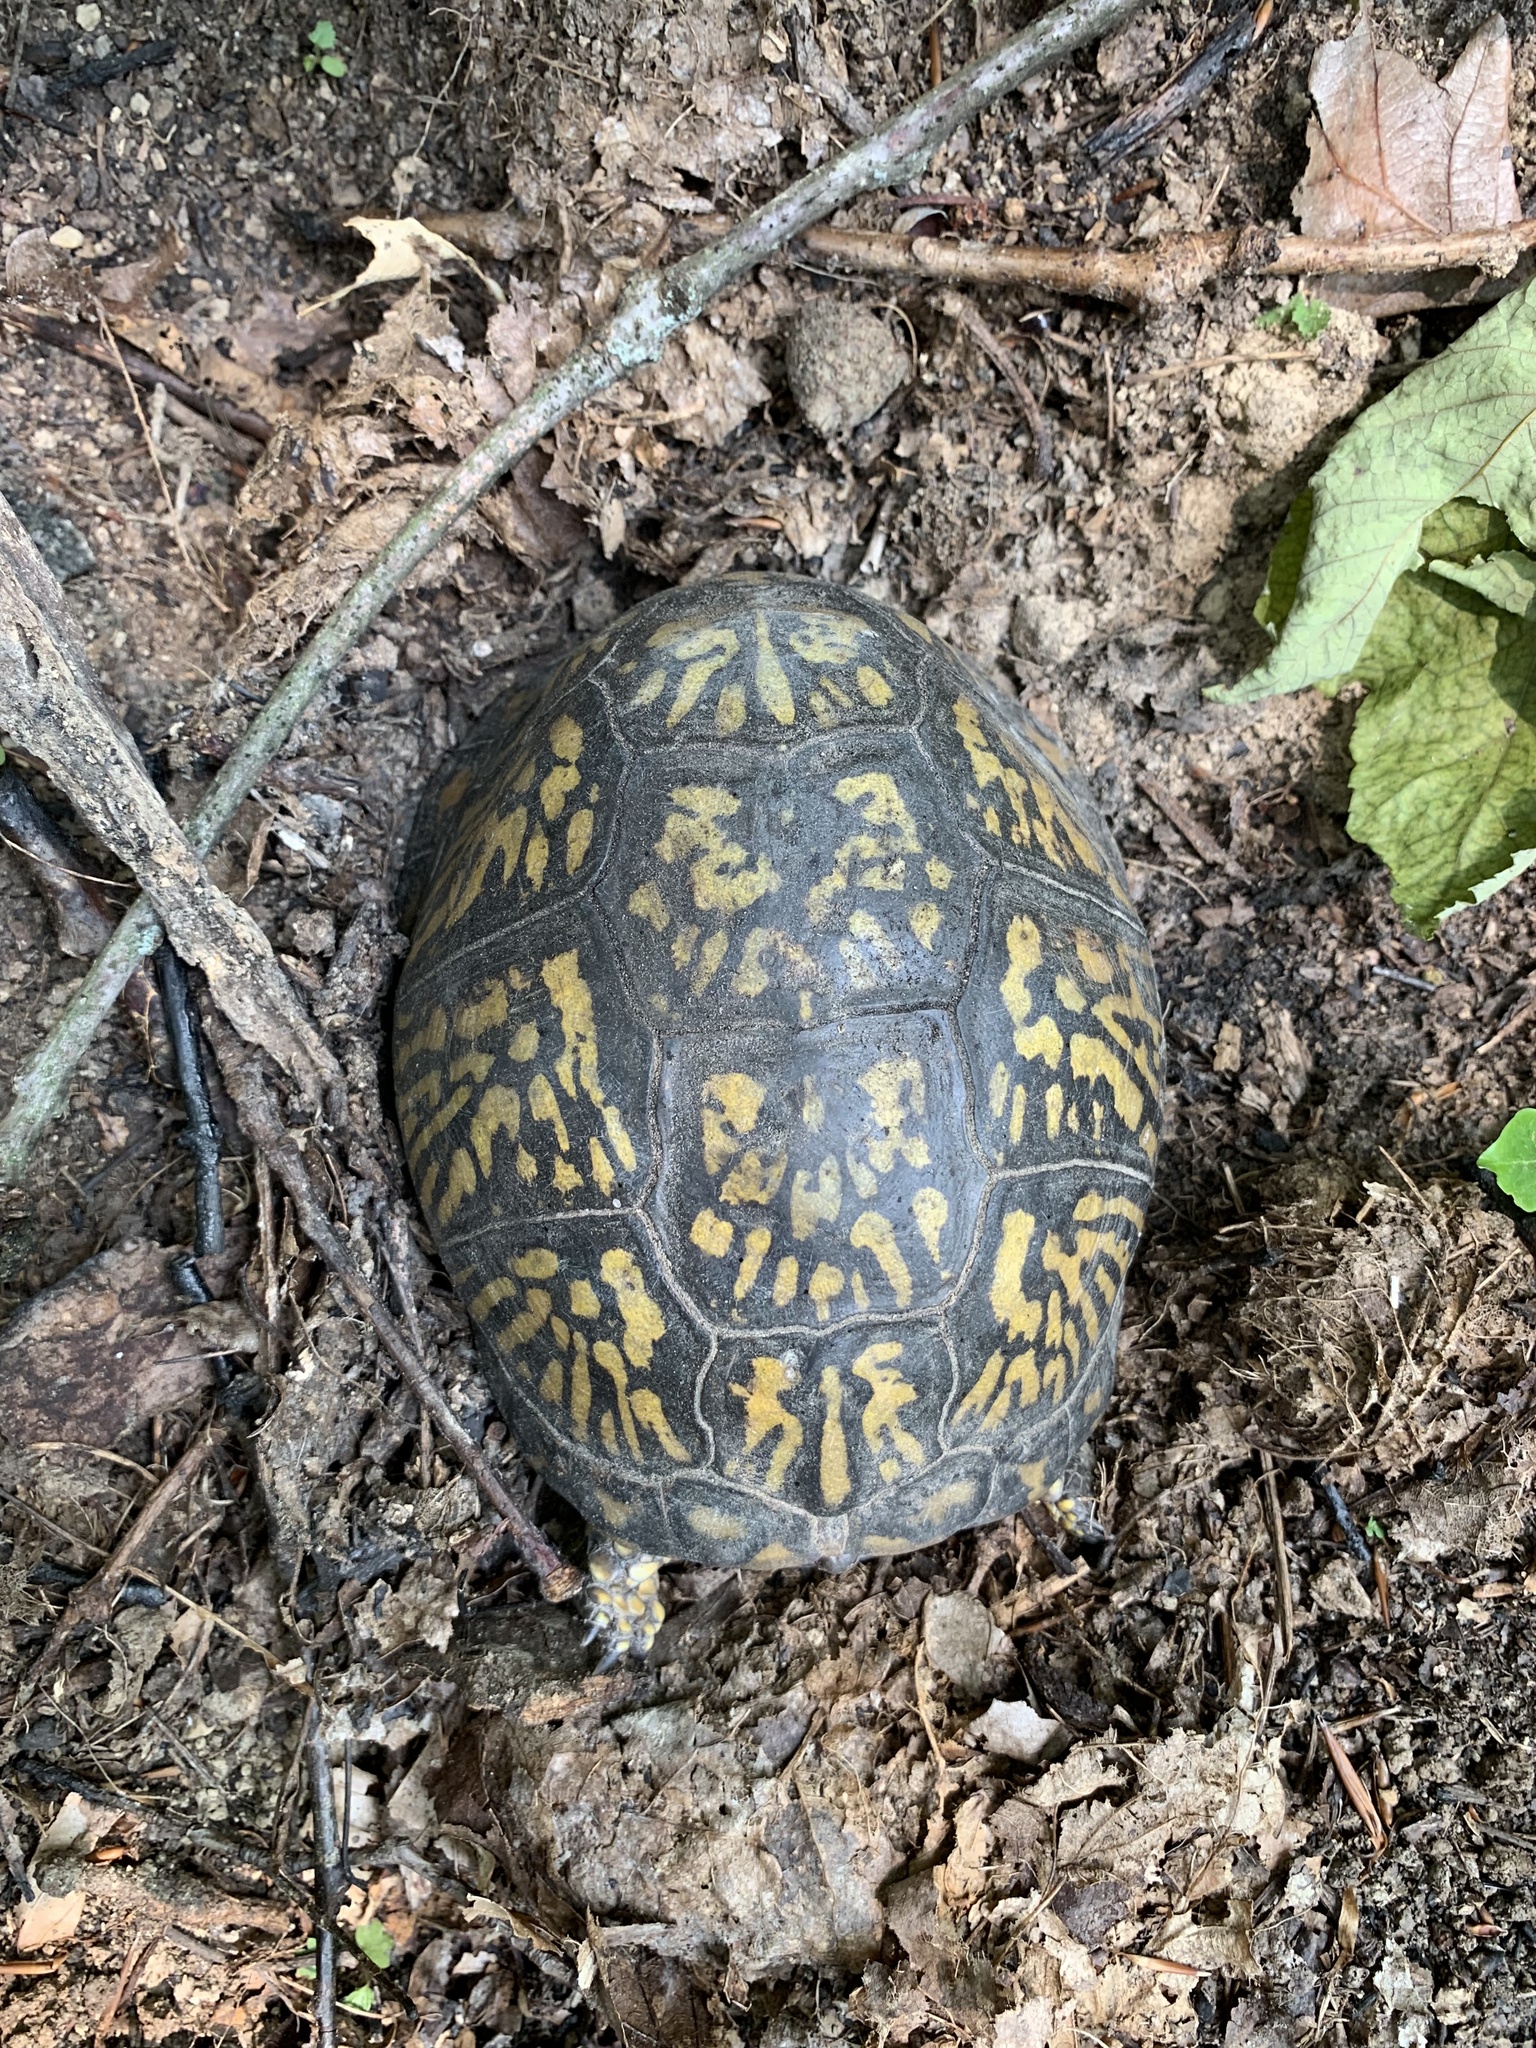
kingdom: Animalia
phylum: Chordata
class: Testudines
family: Emydidae
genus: Terrapene
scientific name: Terrapene carolina
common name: Common box turtle
